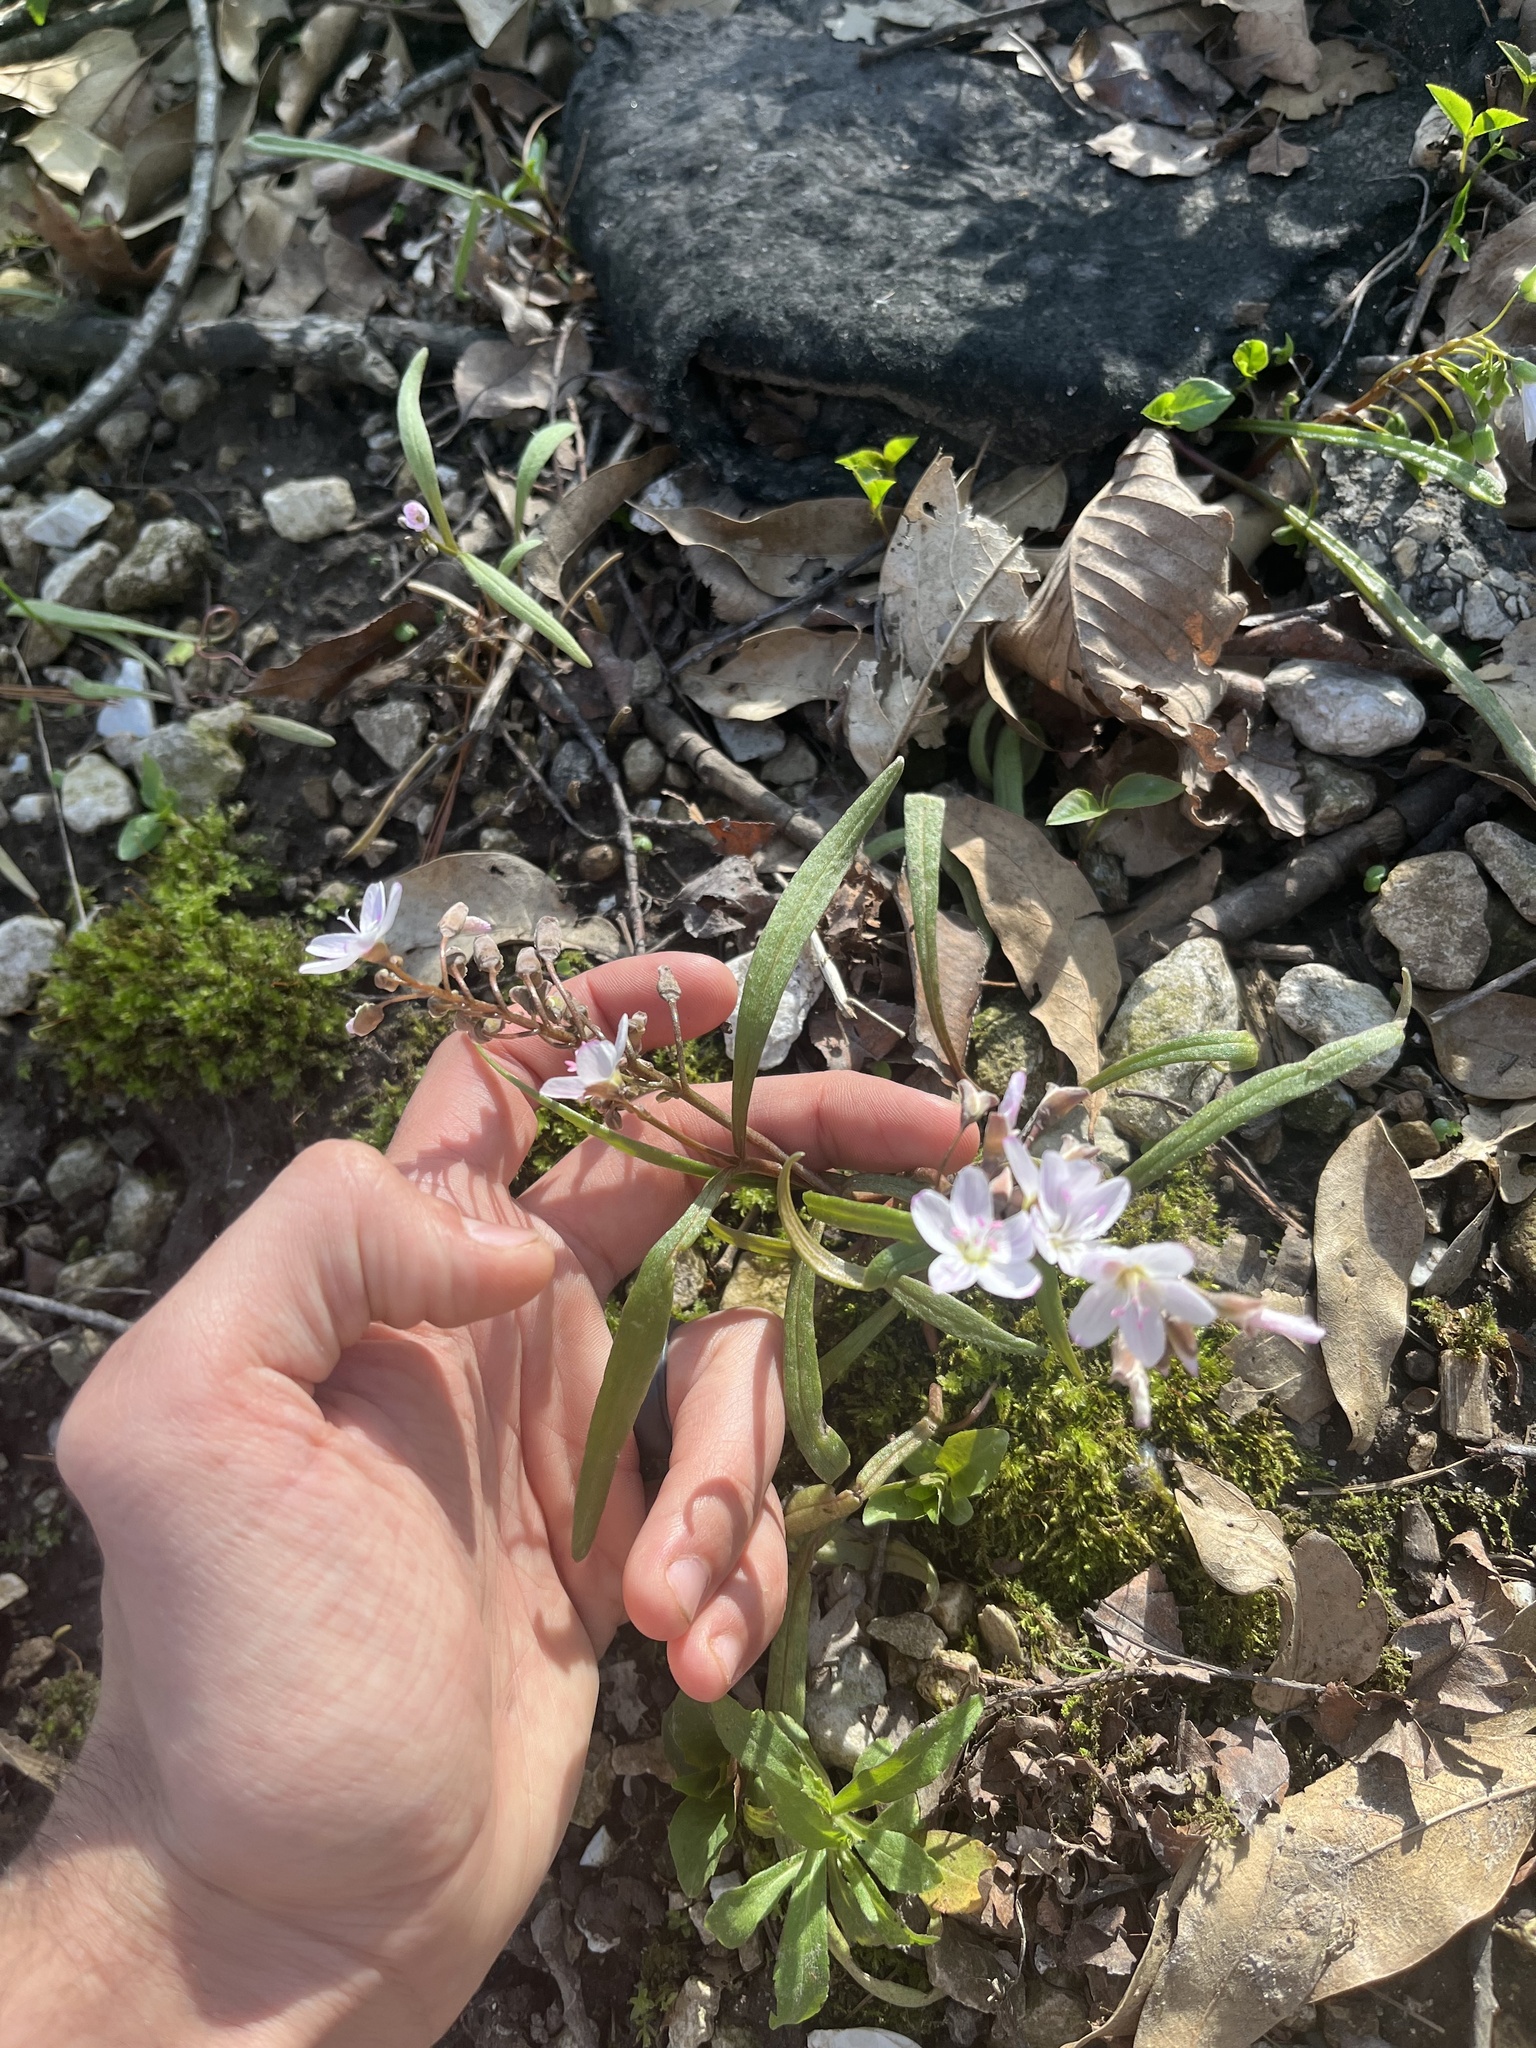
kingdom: Plantae
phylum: Tracheophyta
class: Magnoliopsida
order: Caryophyllales
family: Montiaceae
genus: Claytonia
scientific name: Claytonia virginica
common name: Virginia springbeauty
